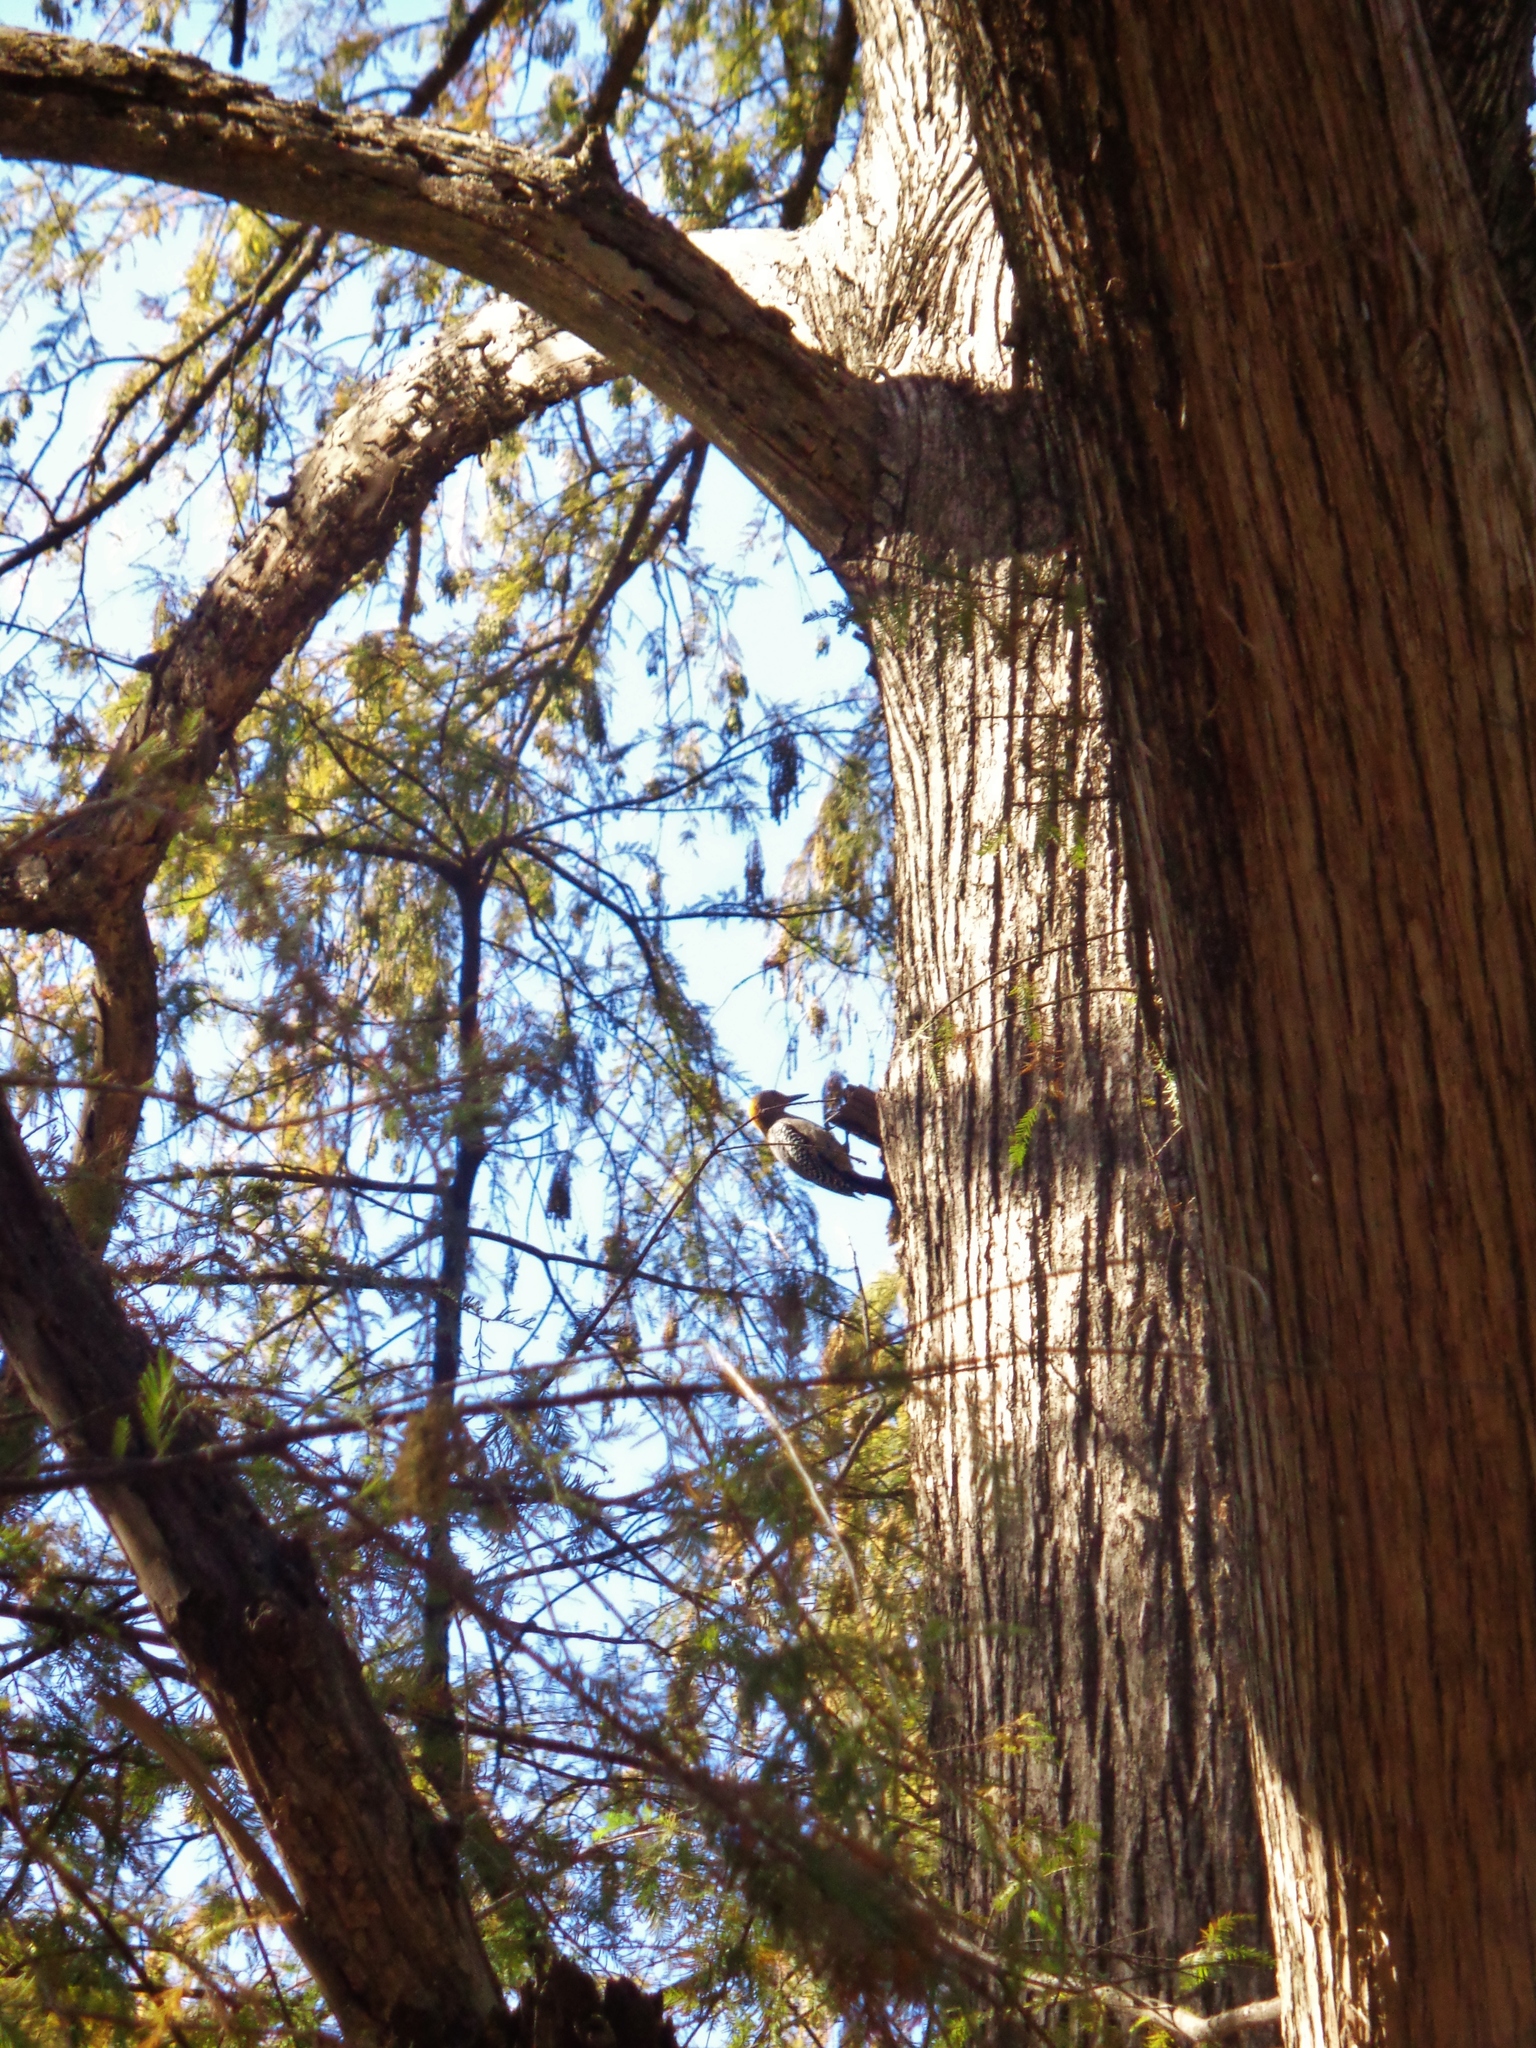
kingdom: Animalia
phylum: Chordata
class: Aves
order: Piciformes
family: Picidae
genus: Melanerpes
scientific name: Melanerpes aurifrons
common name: Golden-fronted woodpecker
